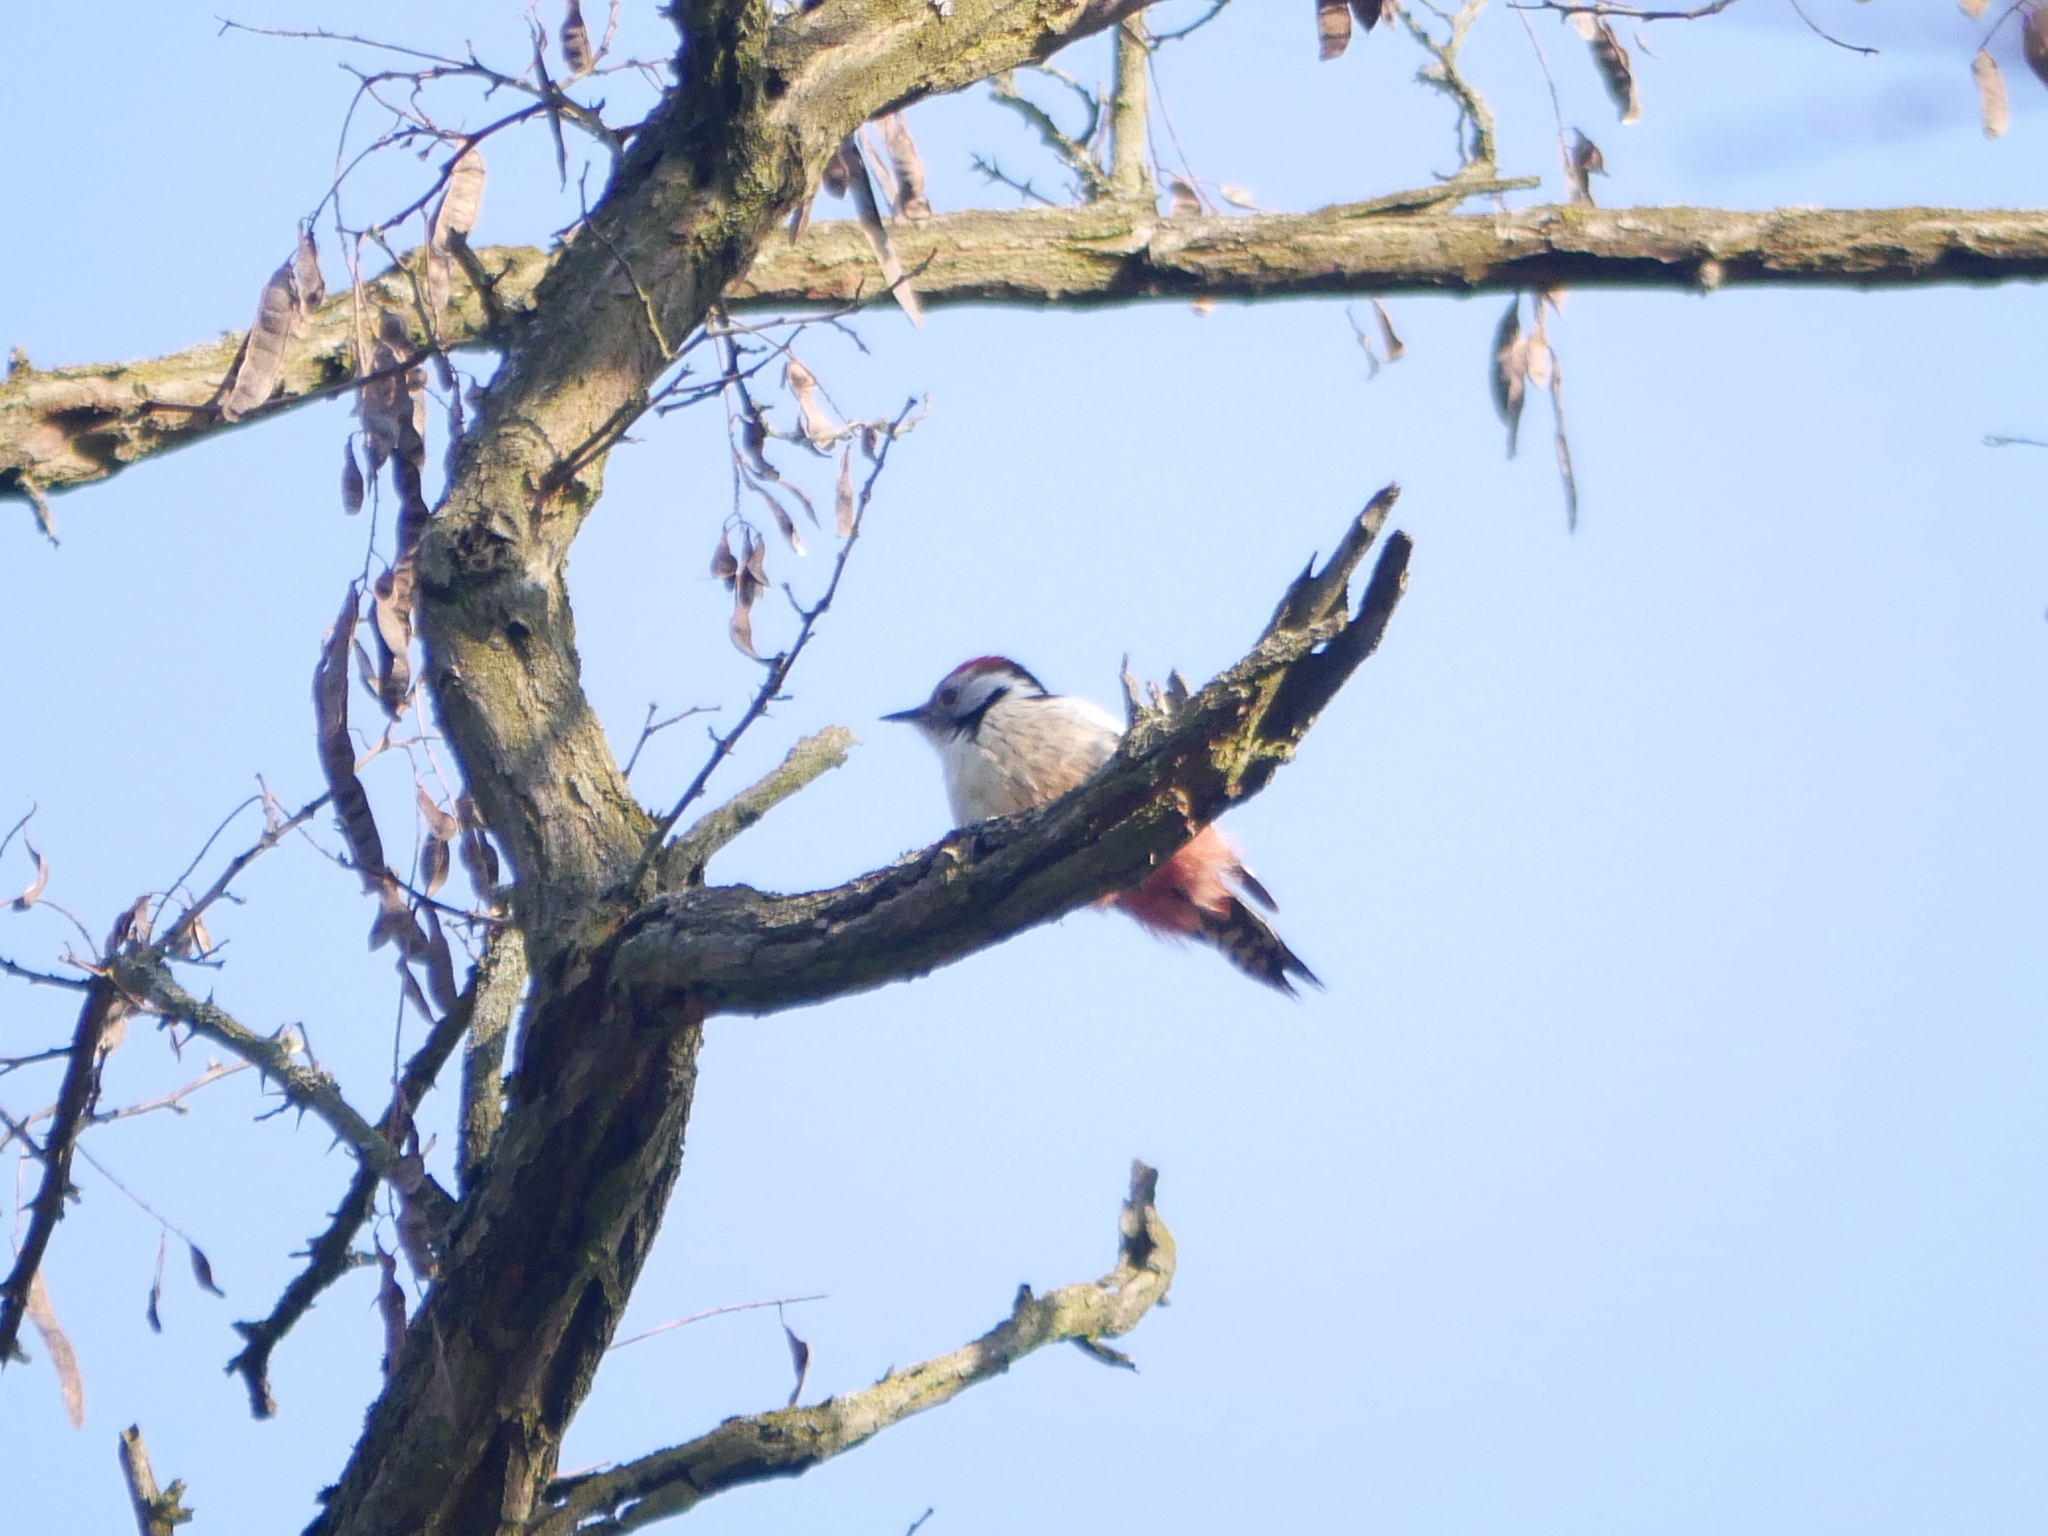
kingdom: Animalia
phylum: Chordata
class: Aves
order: Piciformes
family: Picidae
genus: Dendrocoptes
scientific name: Dendrocoptes medius
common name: Middle spotted woodpecker
